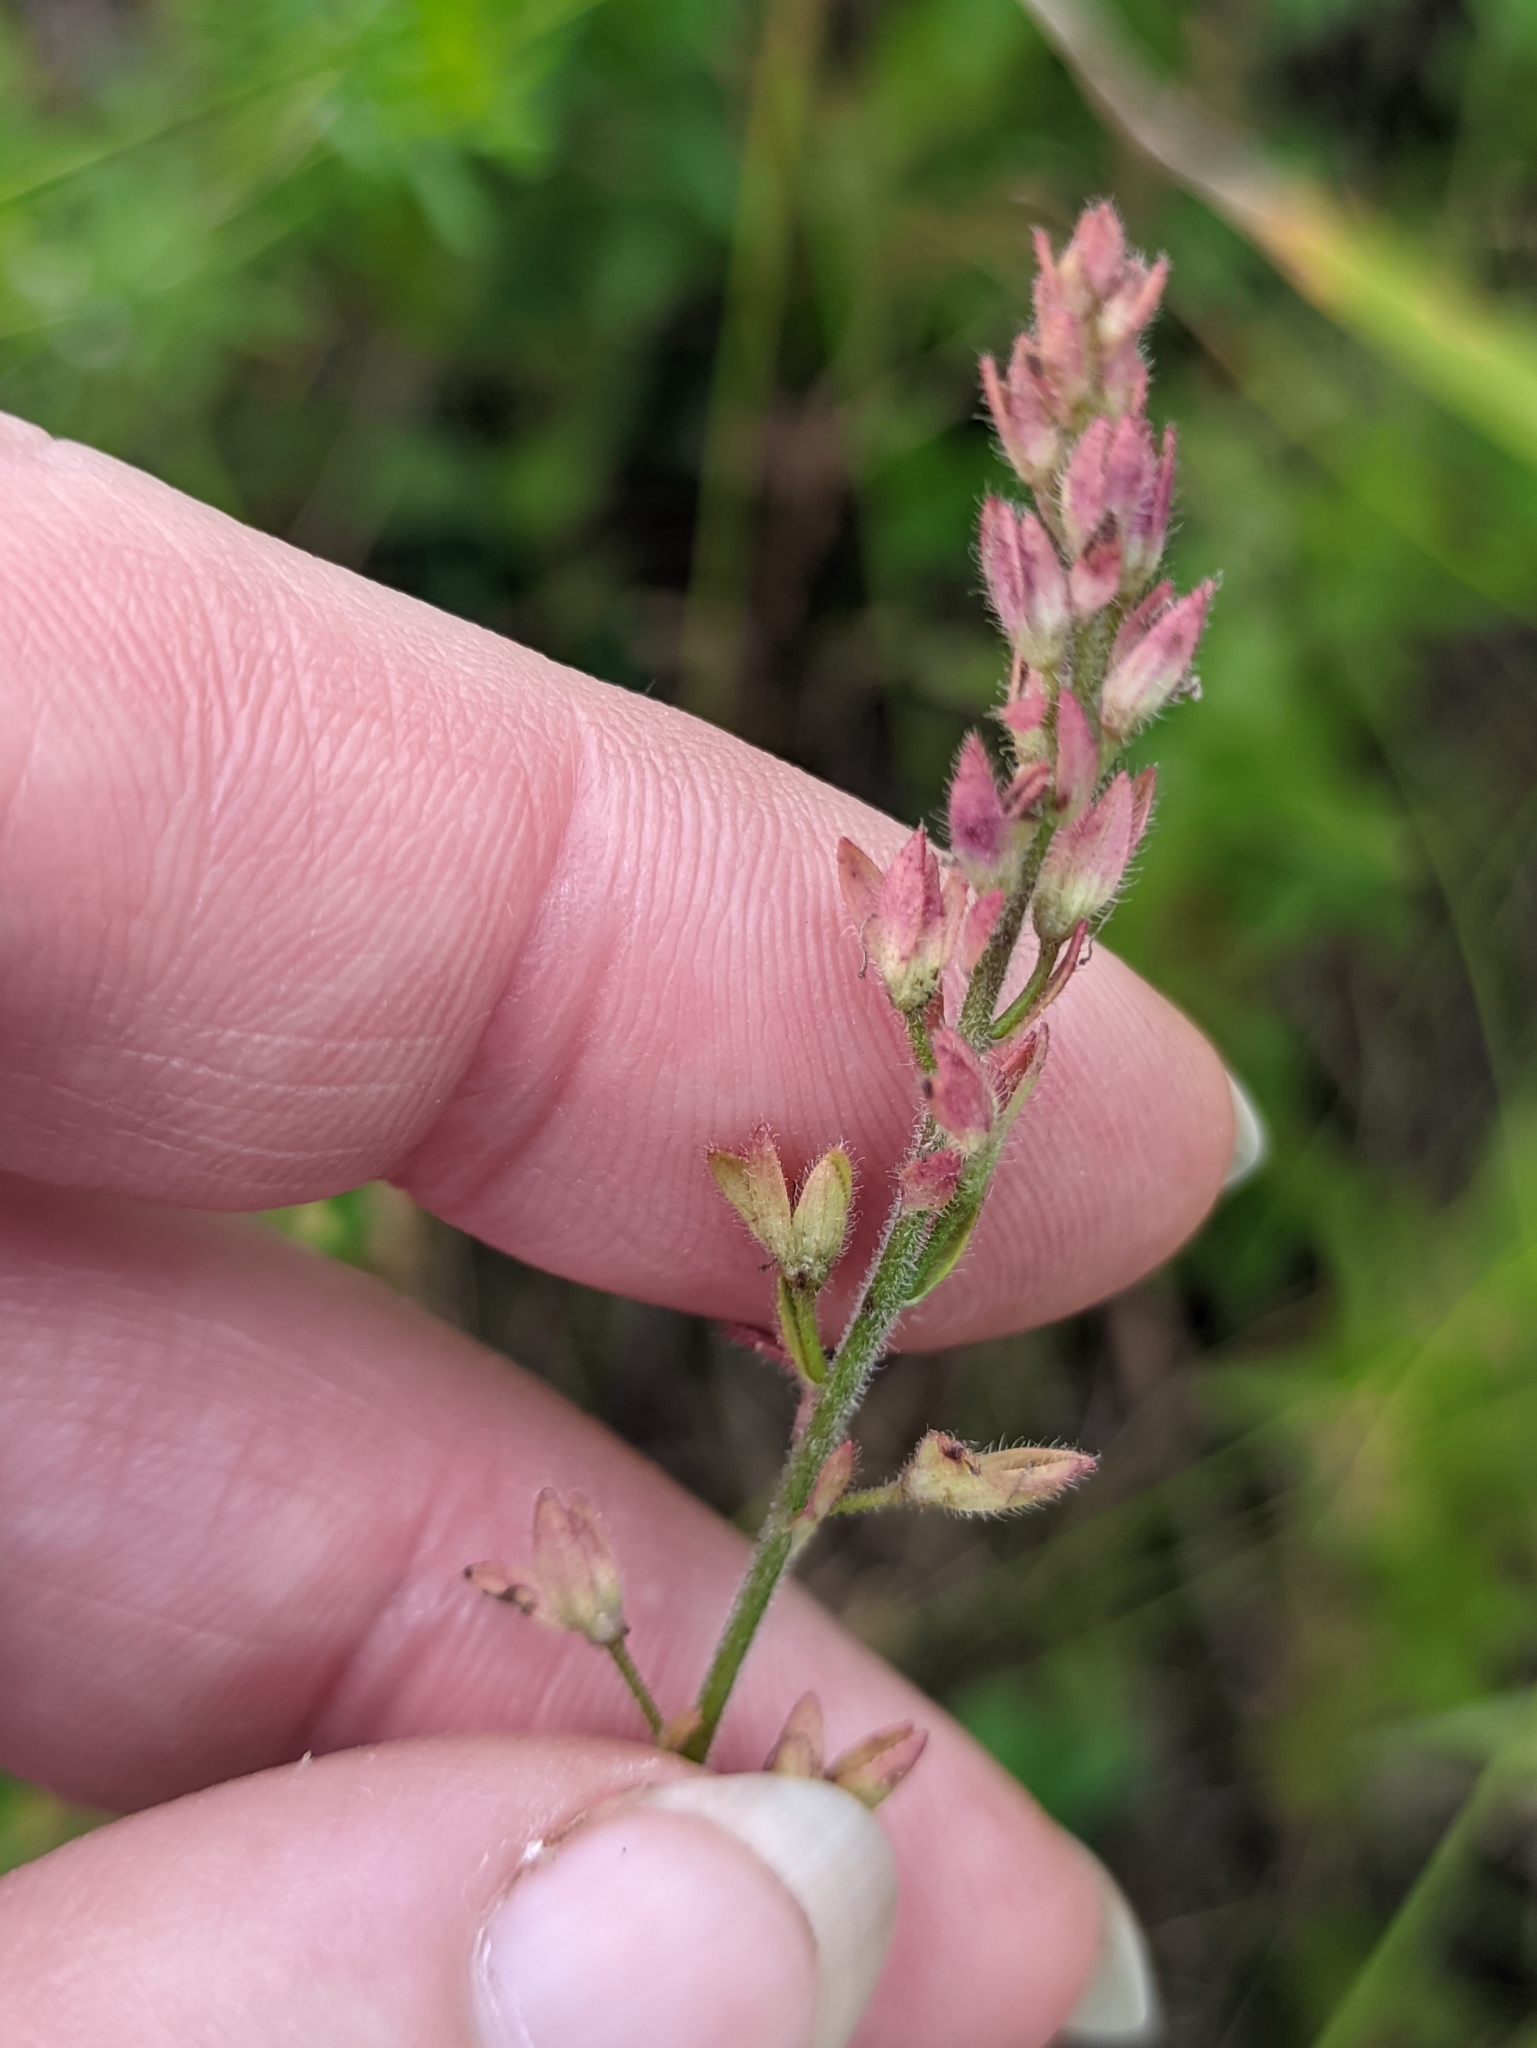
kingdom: Plantae
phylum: Tracheophyta
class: Magnoliopsida
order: Lamiales
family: Plantaginaceae
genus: Veronica
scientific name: Veronica chamaedrys
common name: Germander speedwell
